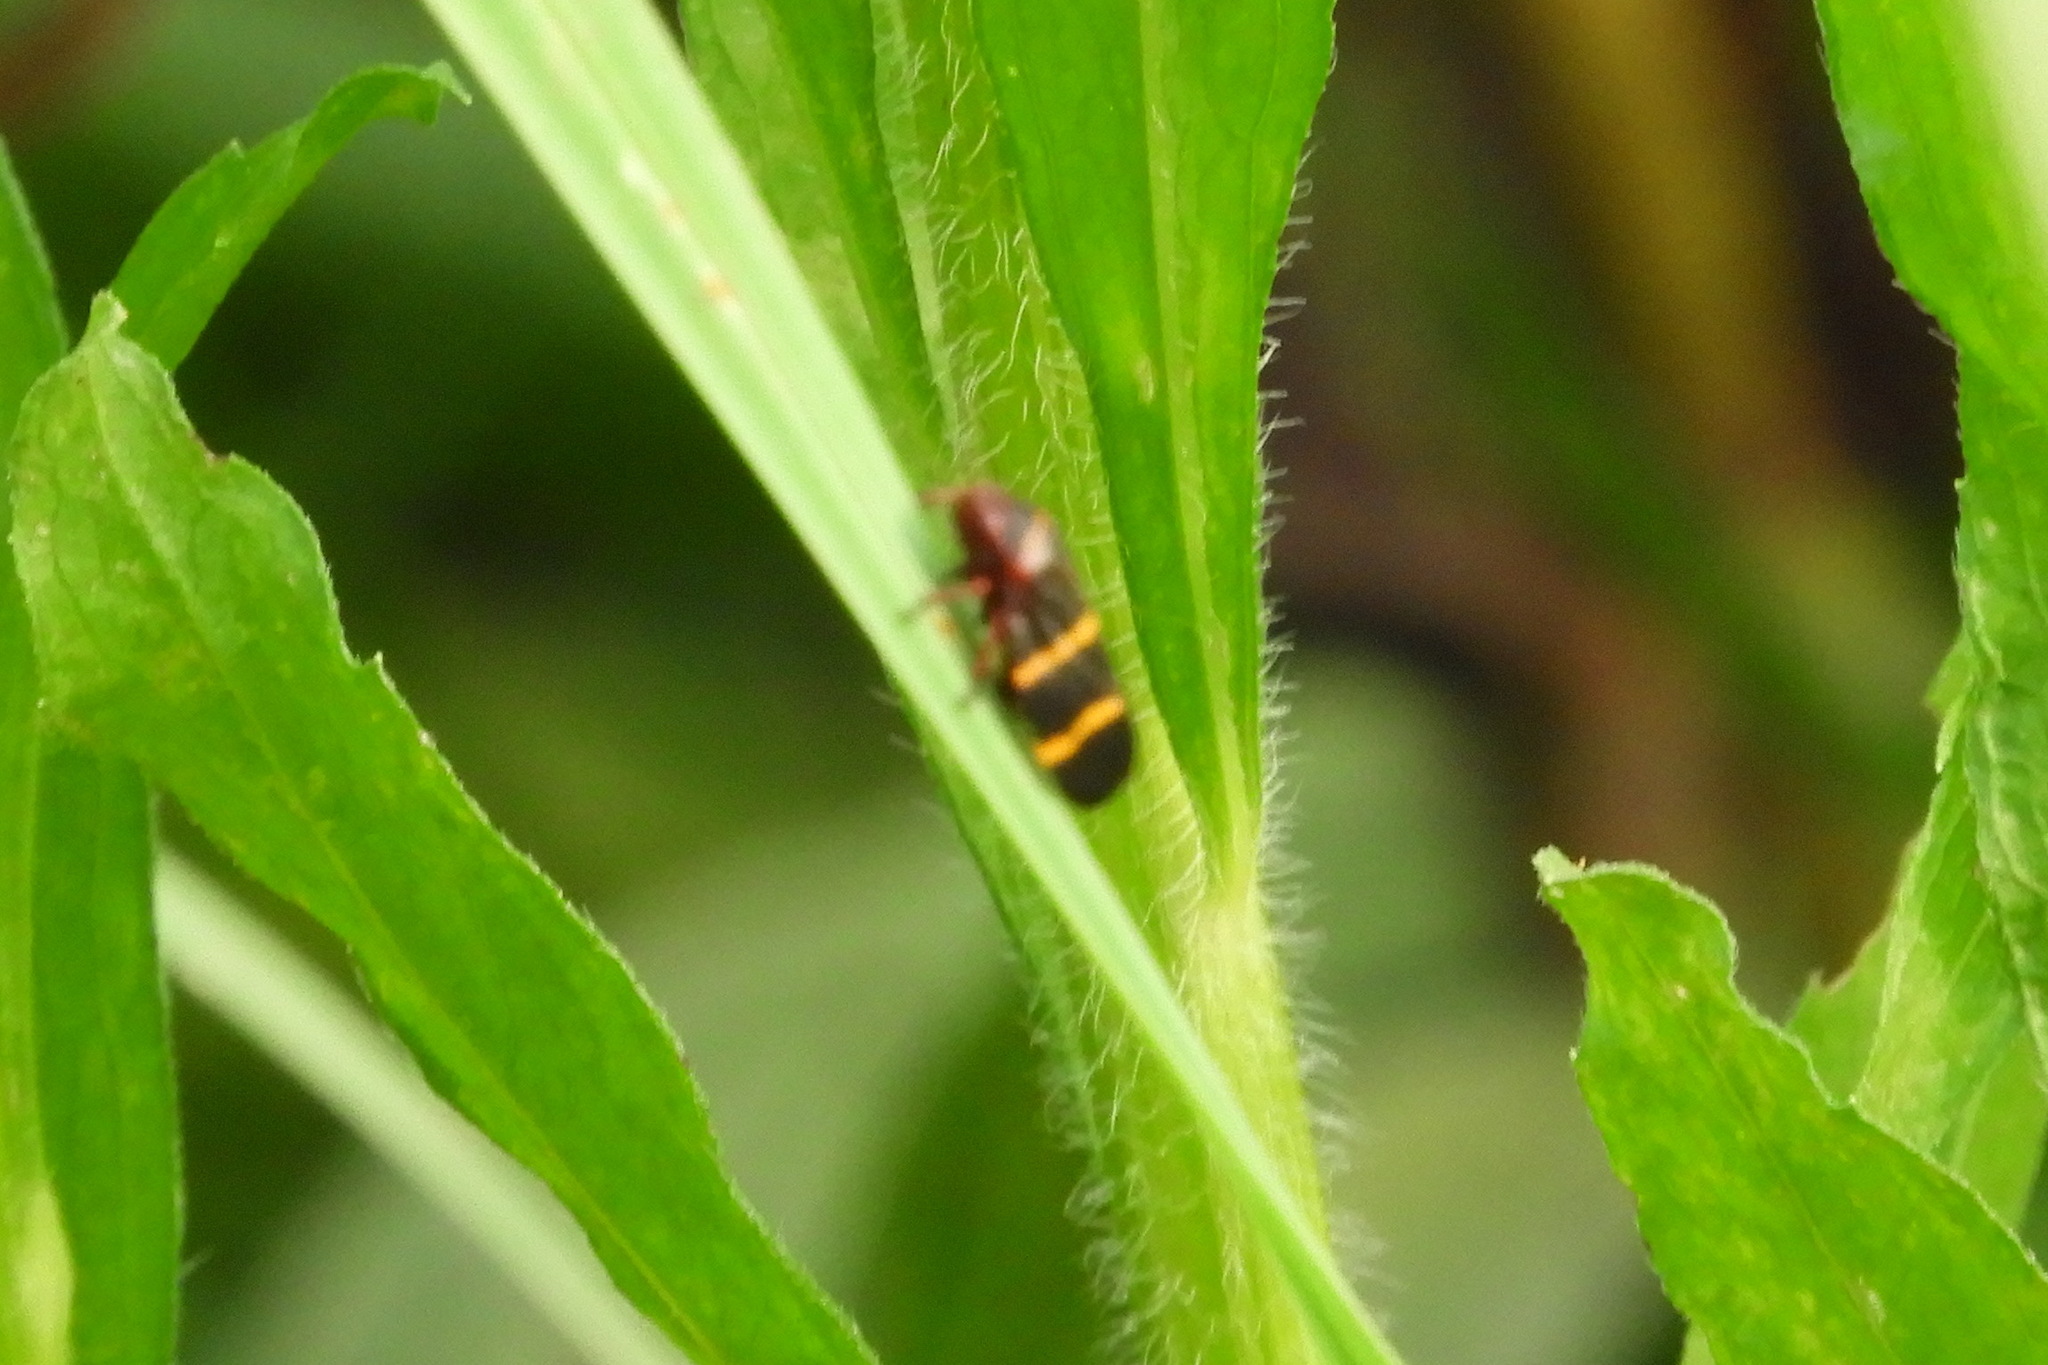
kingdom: Animalia
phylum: Arthropoda
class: Insecta
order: Hemiptera
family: Cercopidae
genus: Prosapia
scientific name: Prosapia bicincta
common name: Twolined spittlebug
